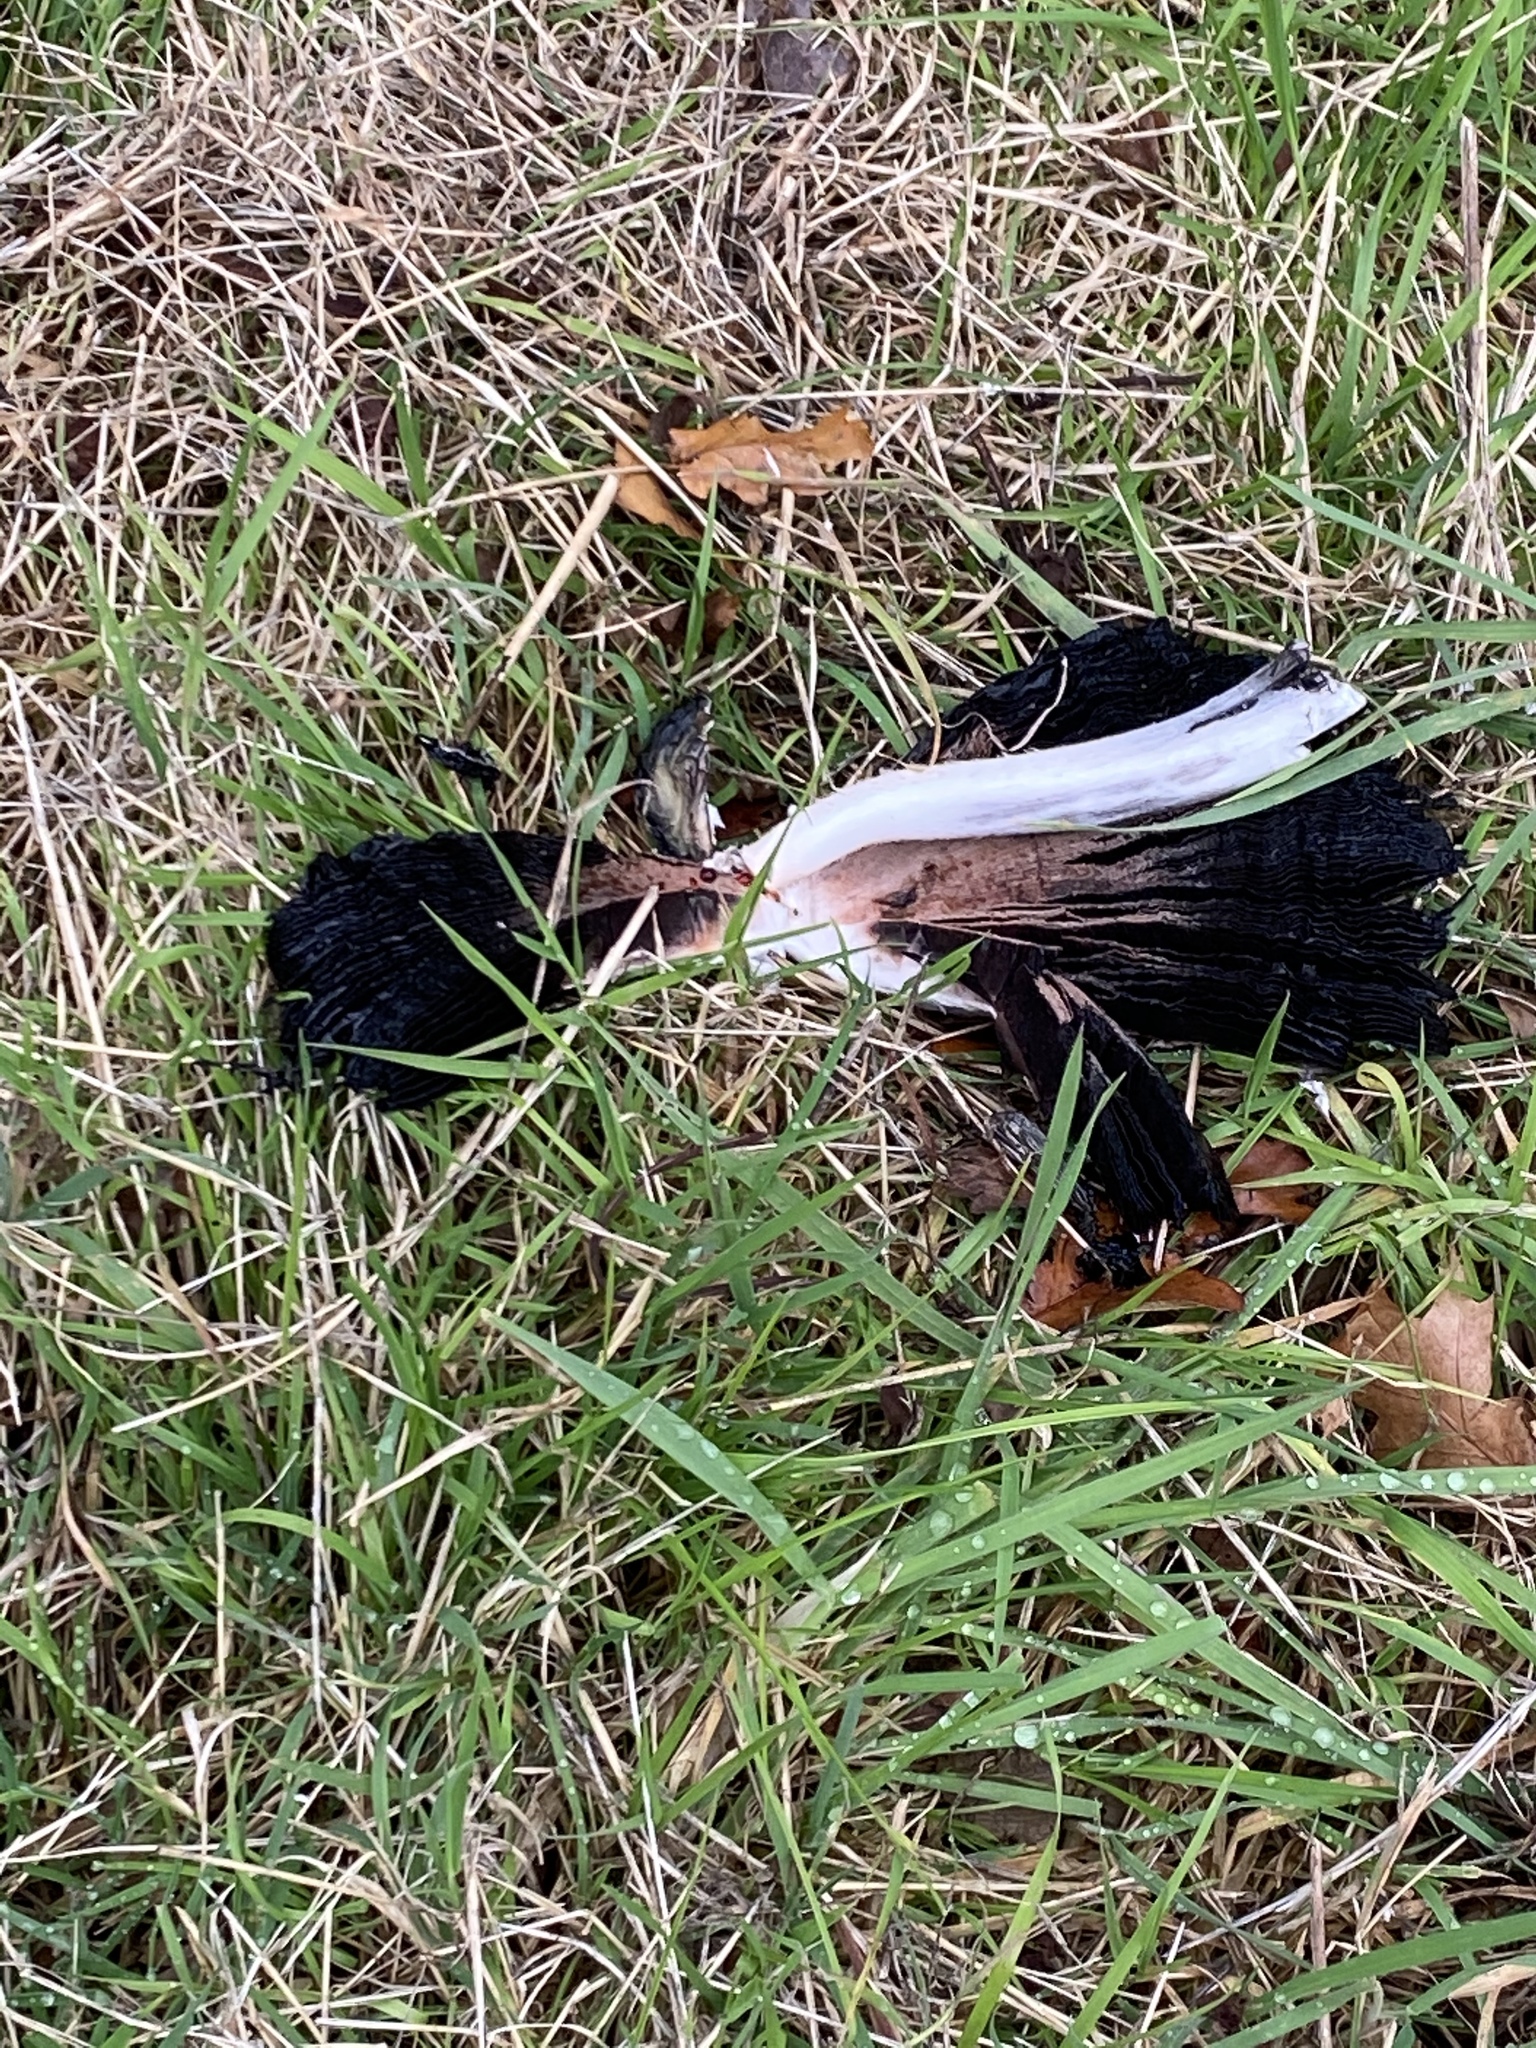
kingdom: Fungi
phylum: Basidiomycota
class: Agaricomycetes
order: Agaricales
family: Agaricaceae
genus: Coprinus
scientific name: Coprinus comatus
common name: Lawyer's wig
